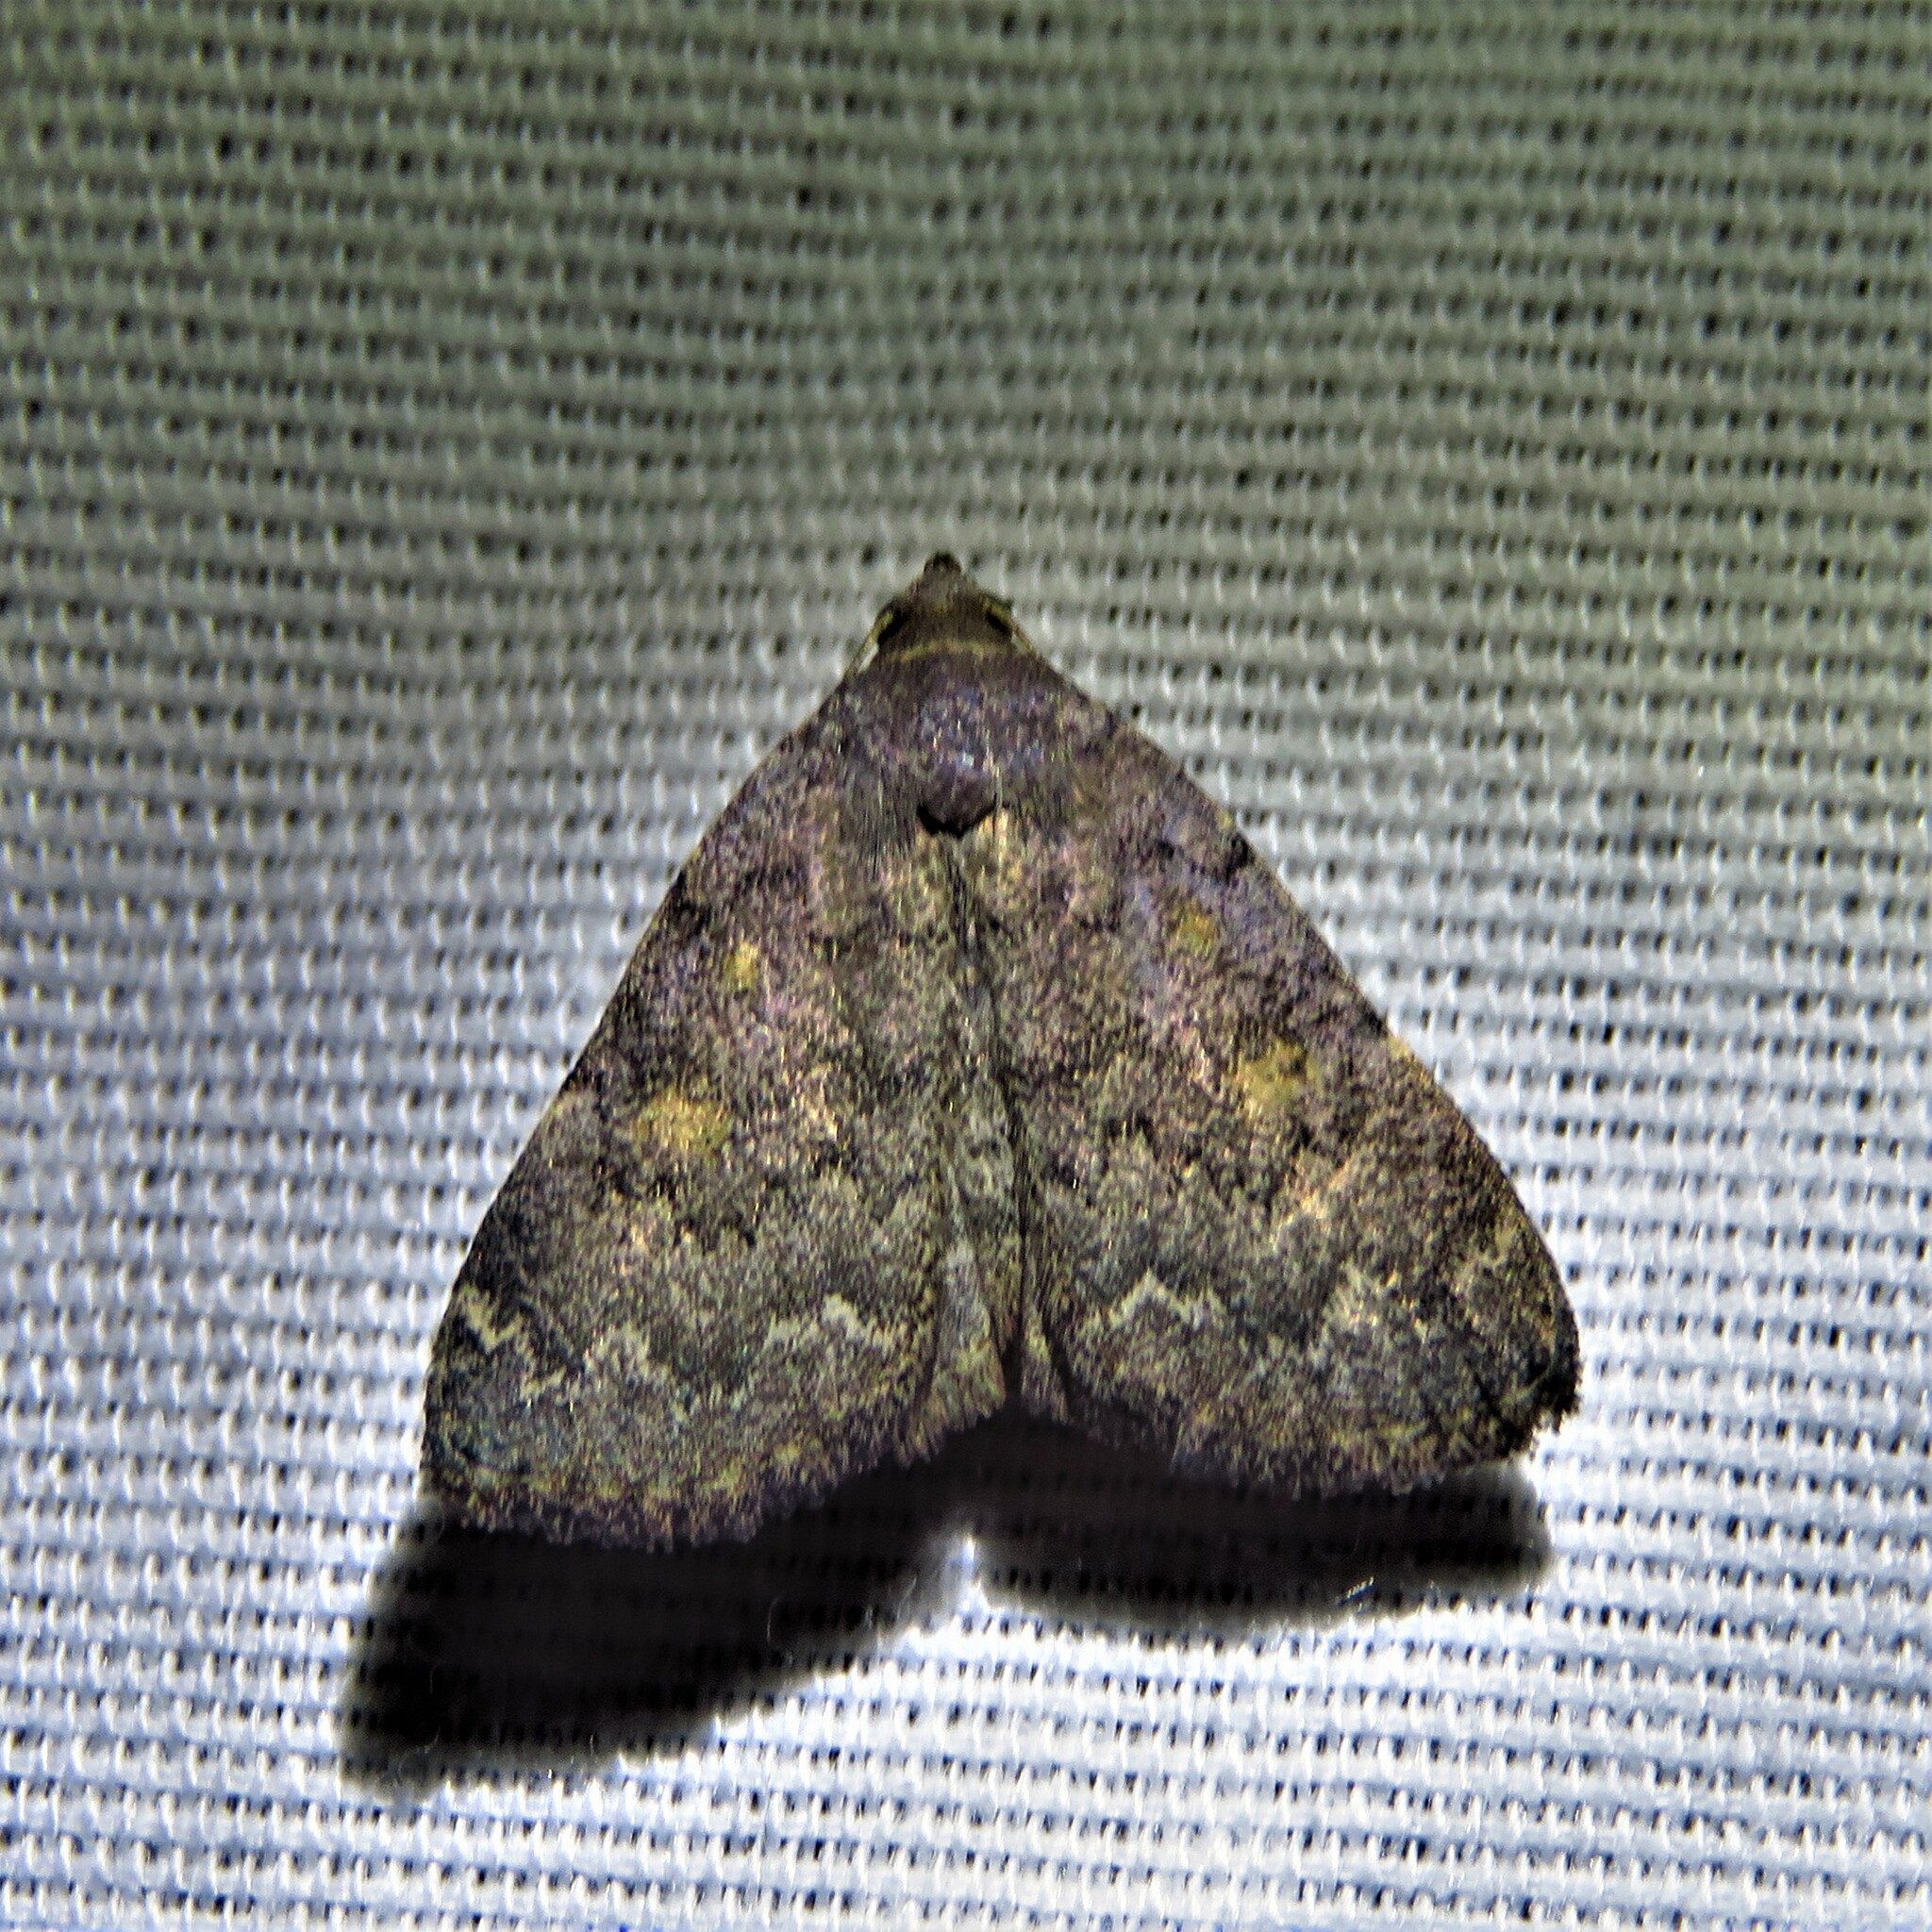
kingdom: Animalia
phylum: Arthropoda
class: Insecta
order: Lepidoptera
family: Erebidae
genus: Idia
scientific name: Idia aemula
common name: Common idia moth
